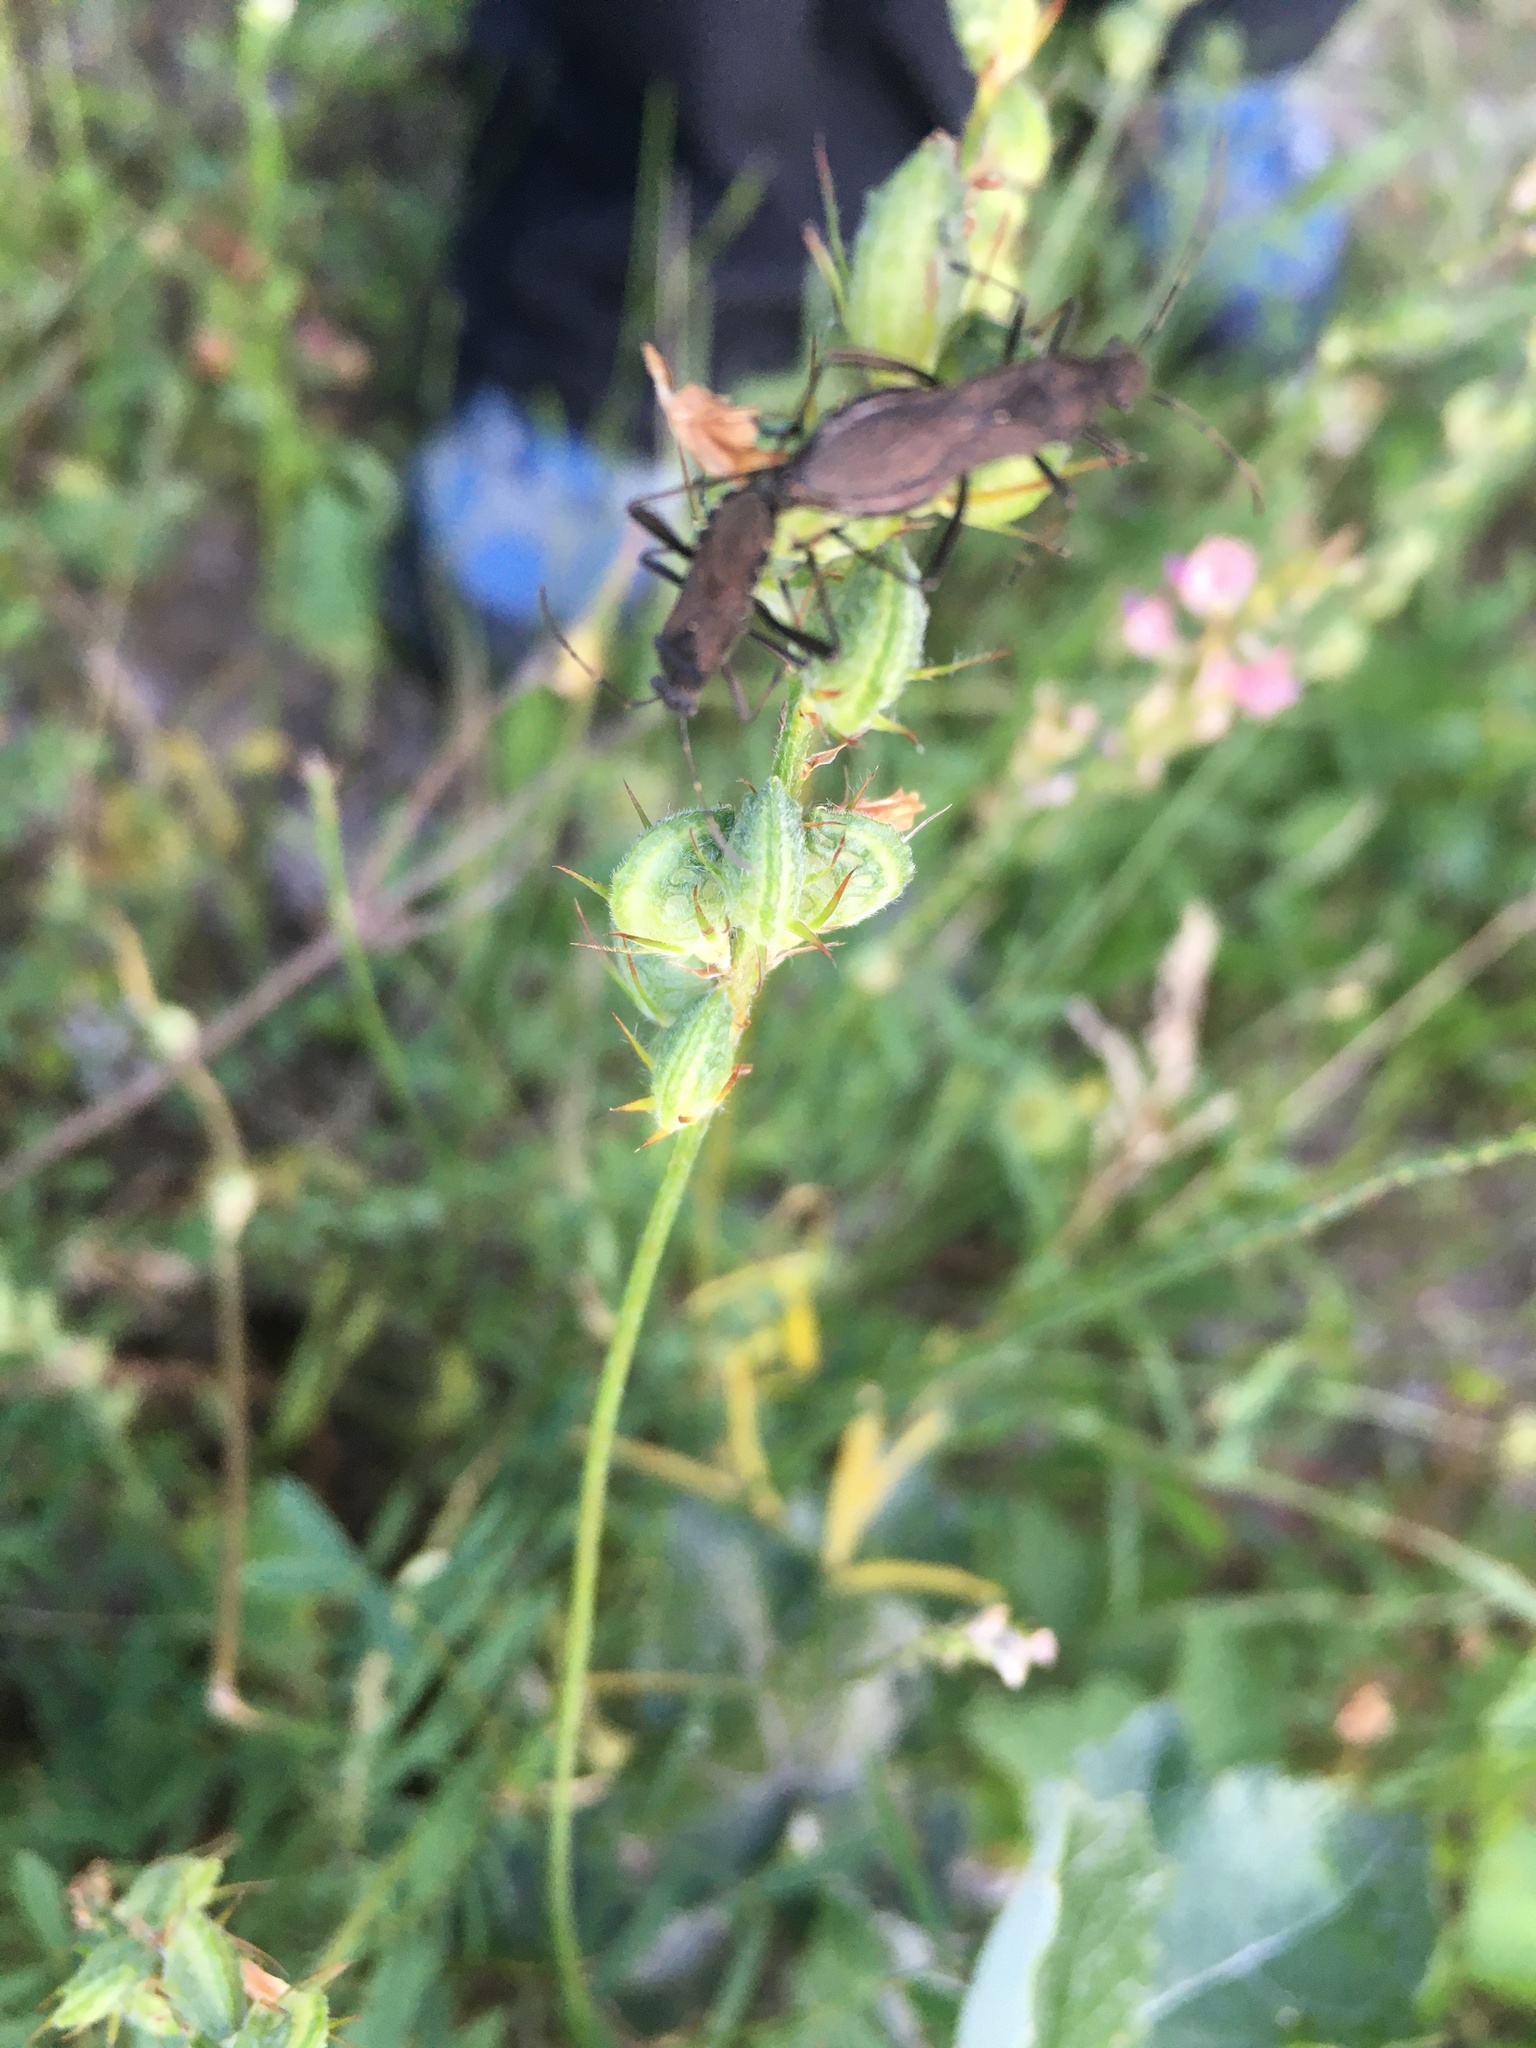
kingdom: Animalia
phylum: Arthropoda
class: Insecta
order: Hemiptera
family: Alydidae
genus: Alydus
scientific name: Alydus calcaratus
